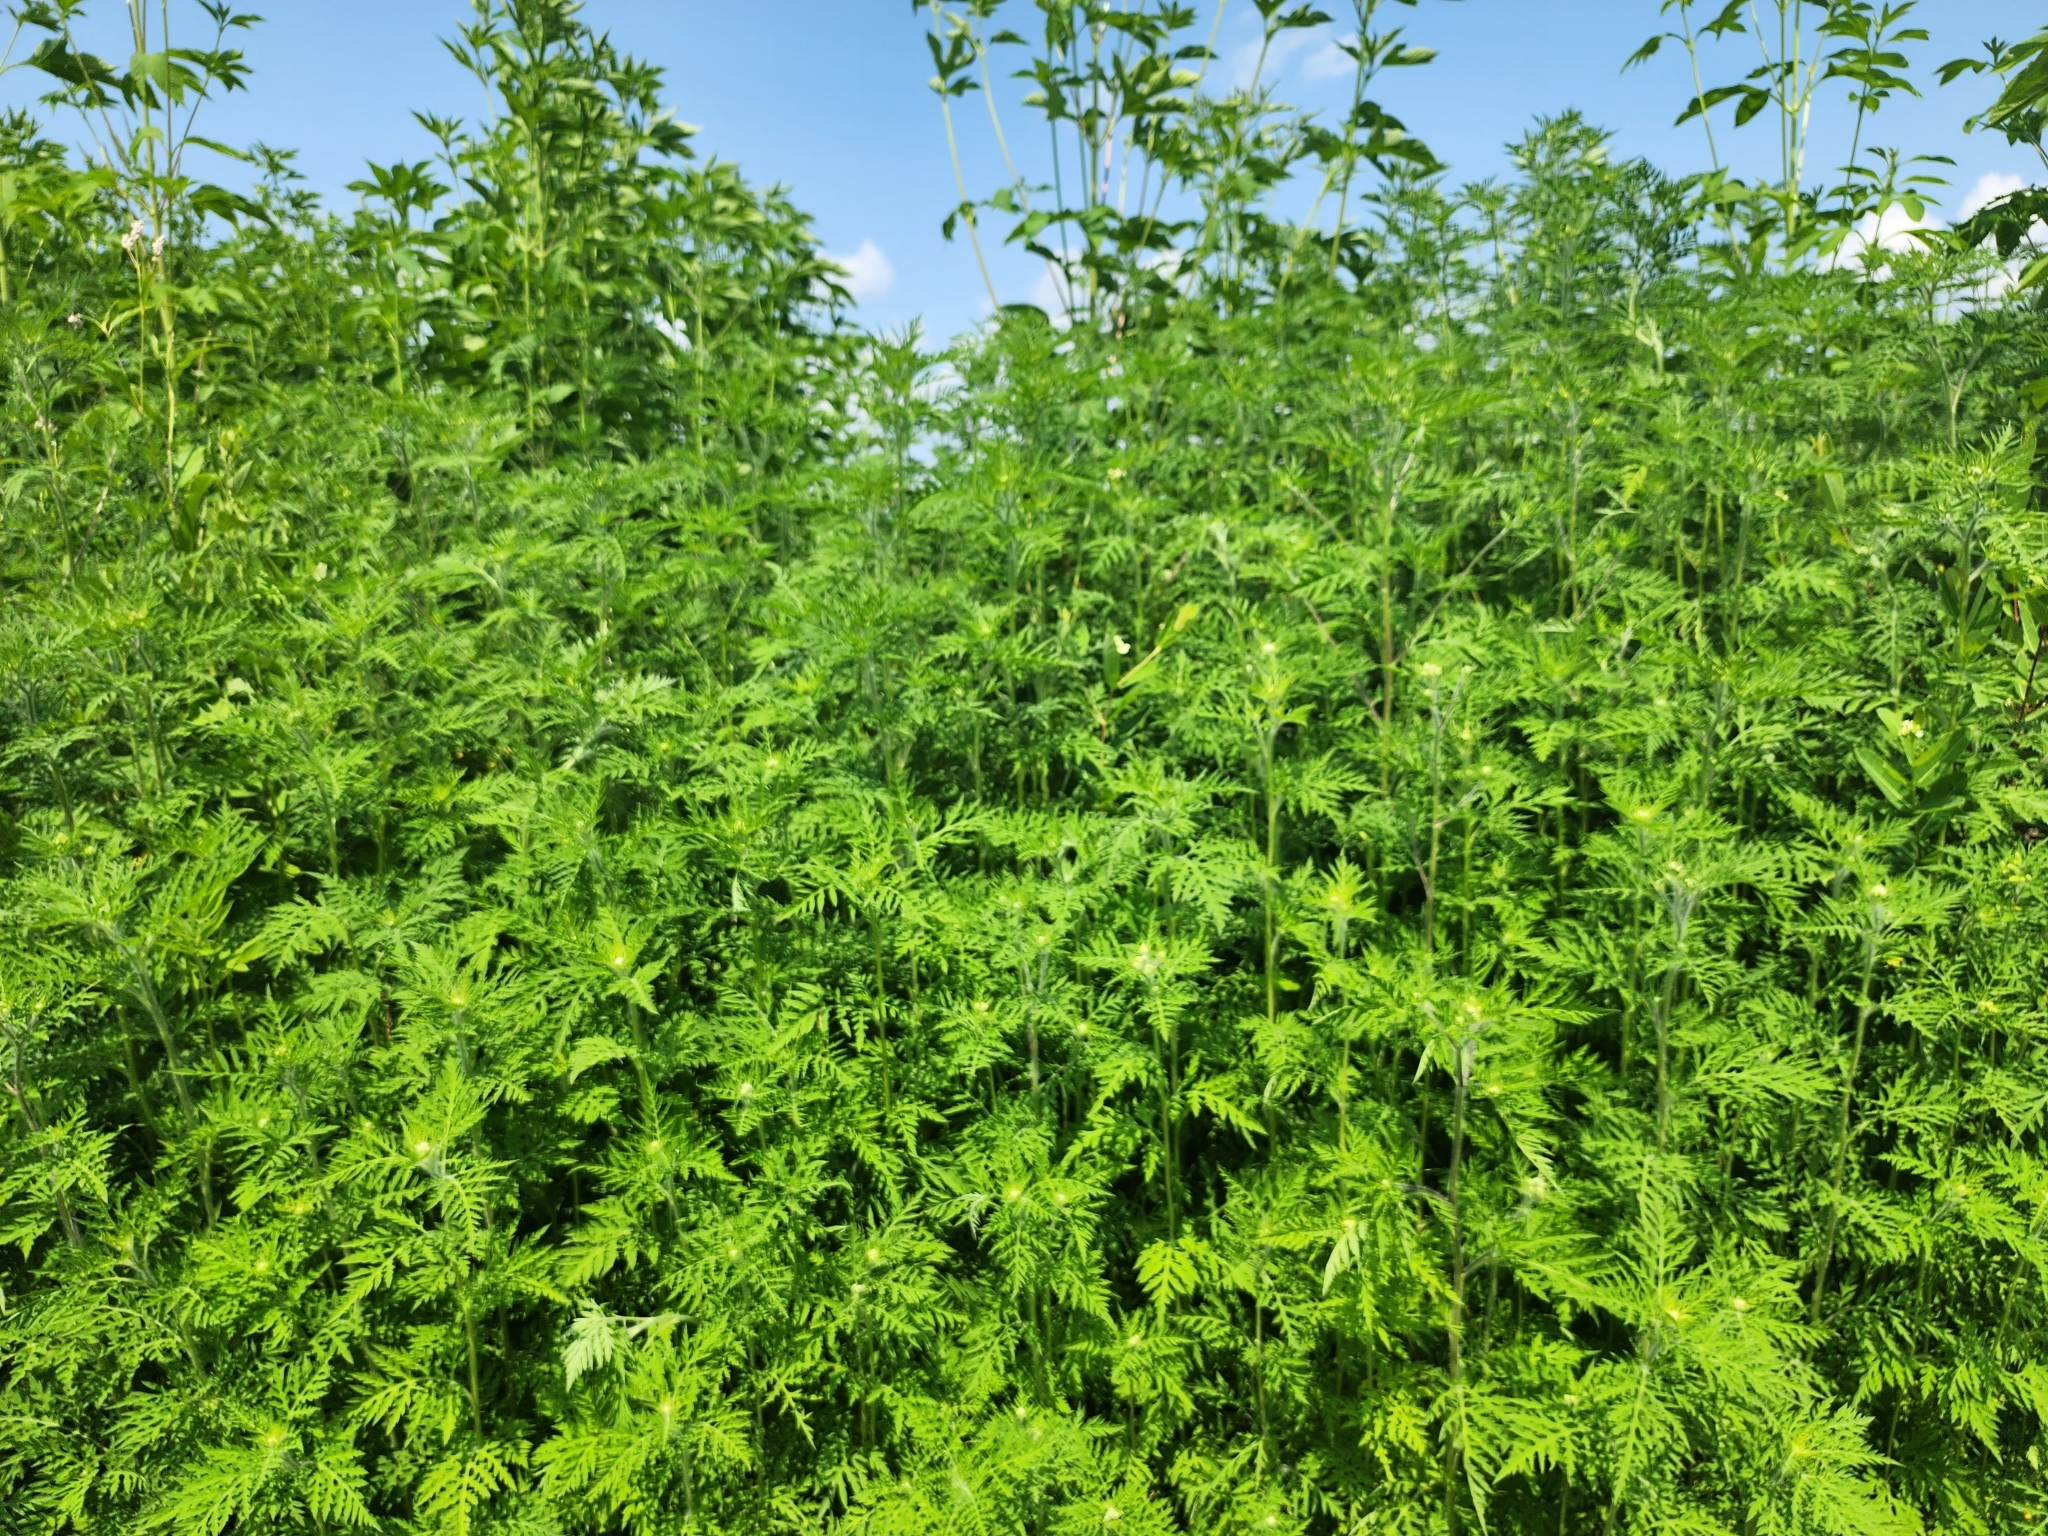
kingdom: Plantae
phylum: Tracheophyta
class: Magnoliopsida
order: Asterales
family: Asteraceae
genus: Ambrosia
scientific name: Ambrosia artemisiifolia
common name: Annual ragweed
